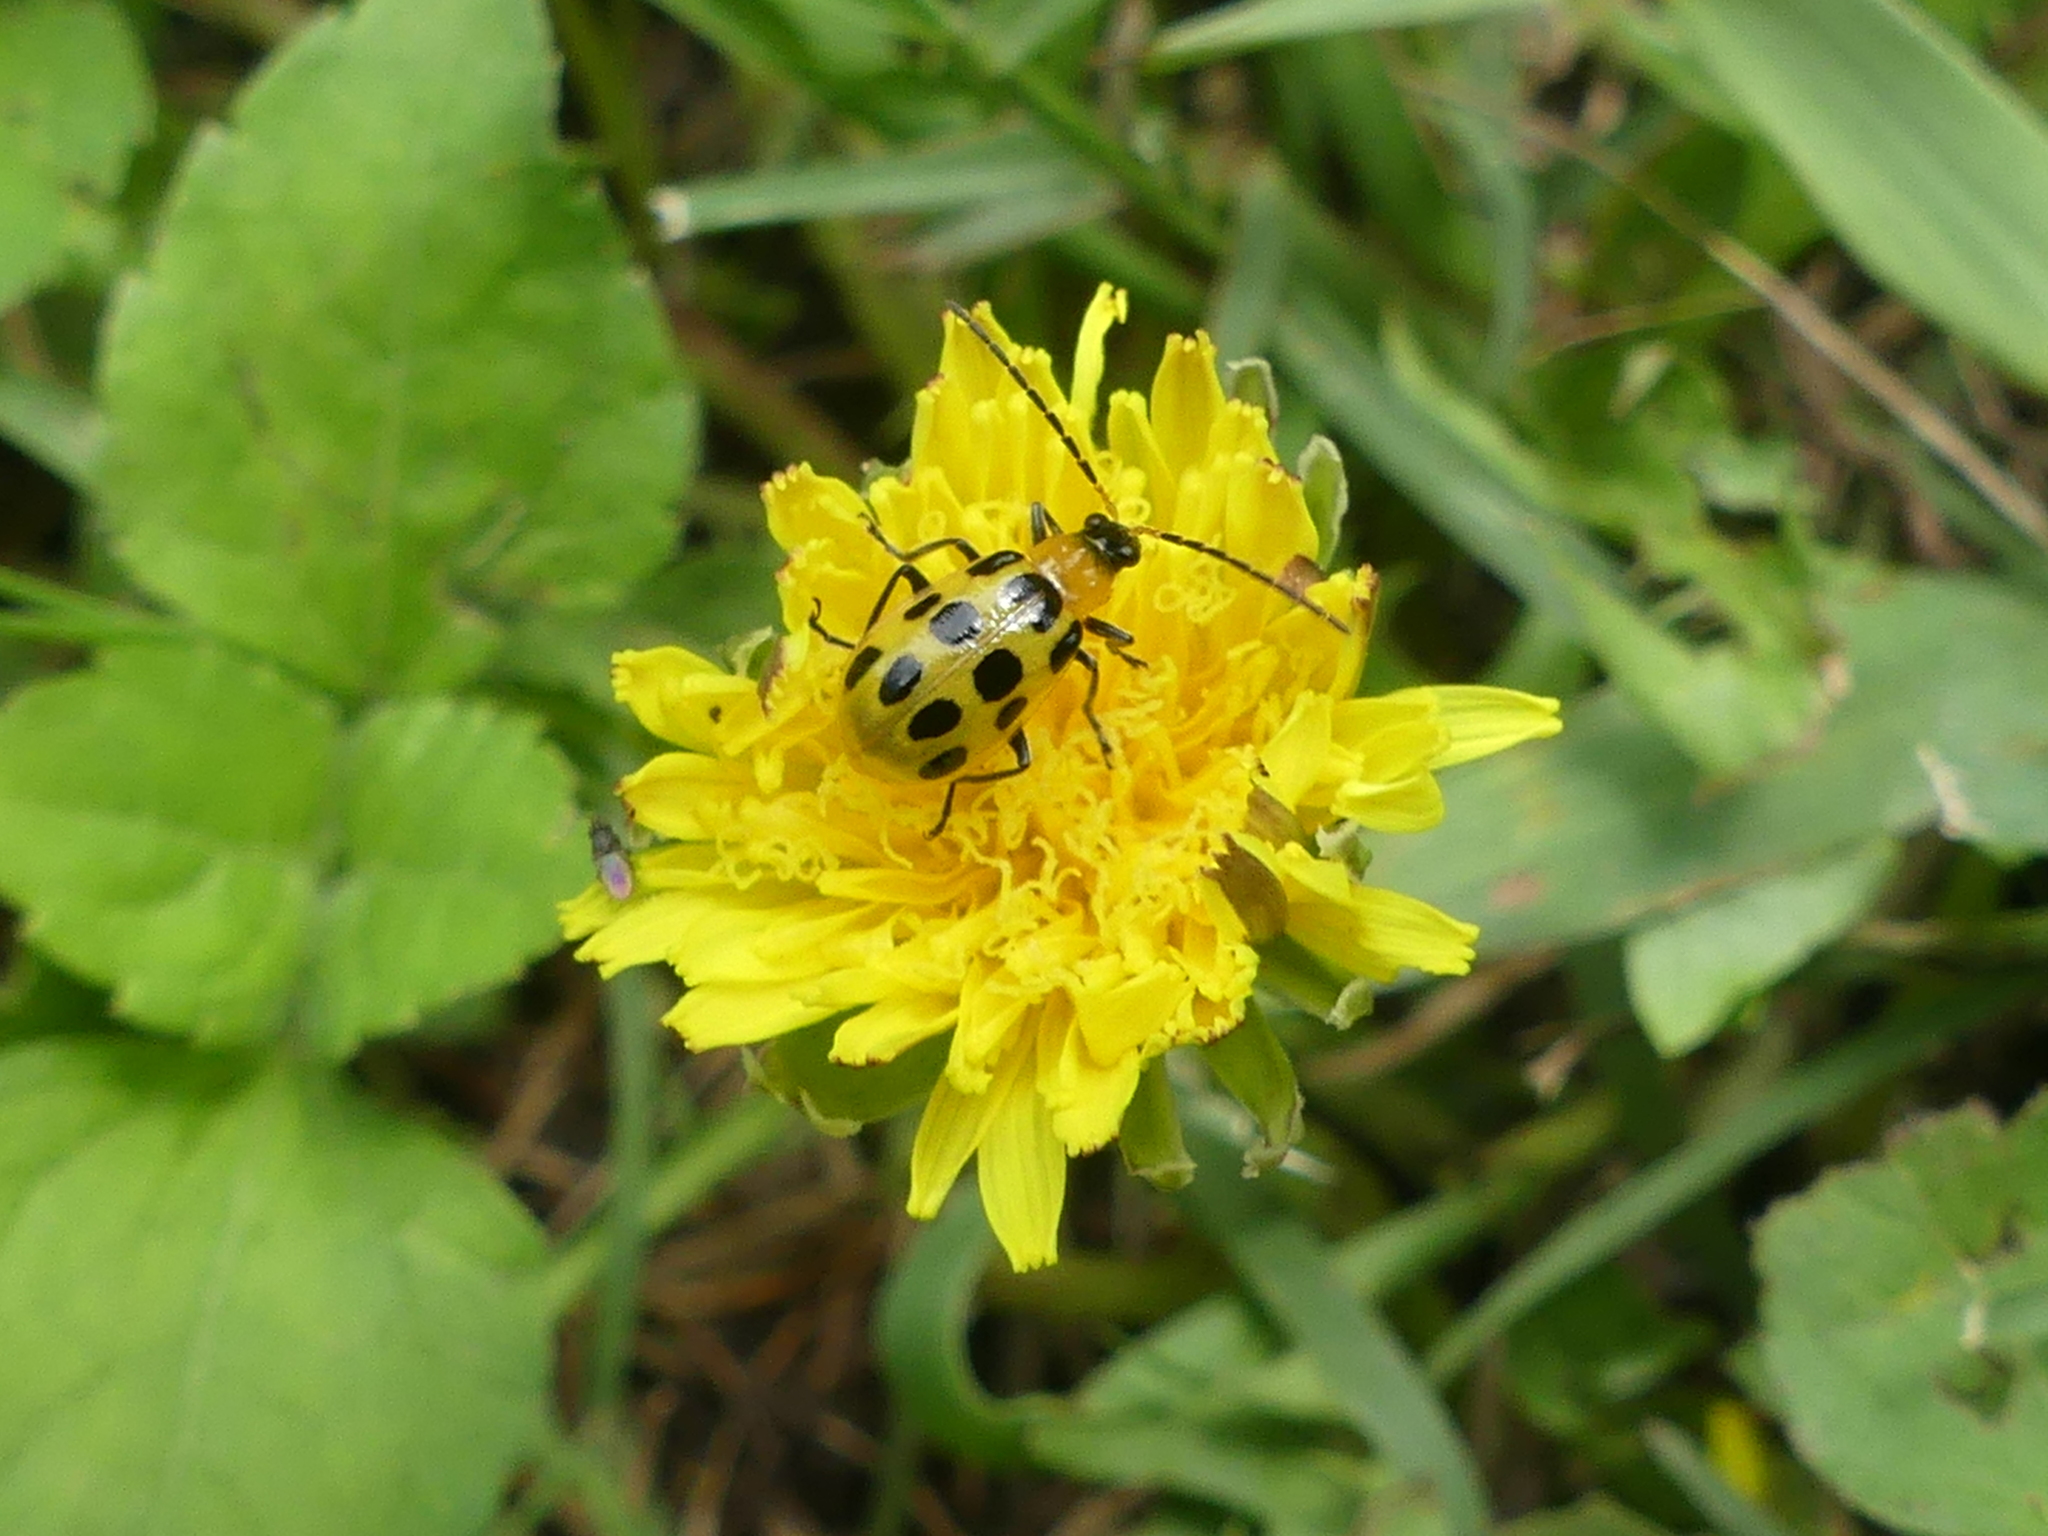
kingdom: Animalia
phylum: Arthropoda
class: Insecta
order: Coleoptera
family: Chrysomelidae
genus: Diabrotica
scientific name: Diabrotica undecimpunctata
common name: Spotted cucumber beetle
